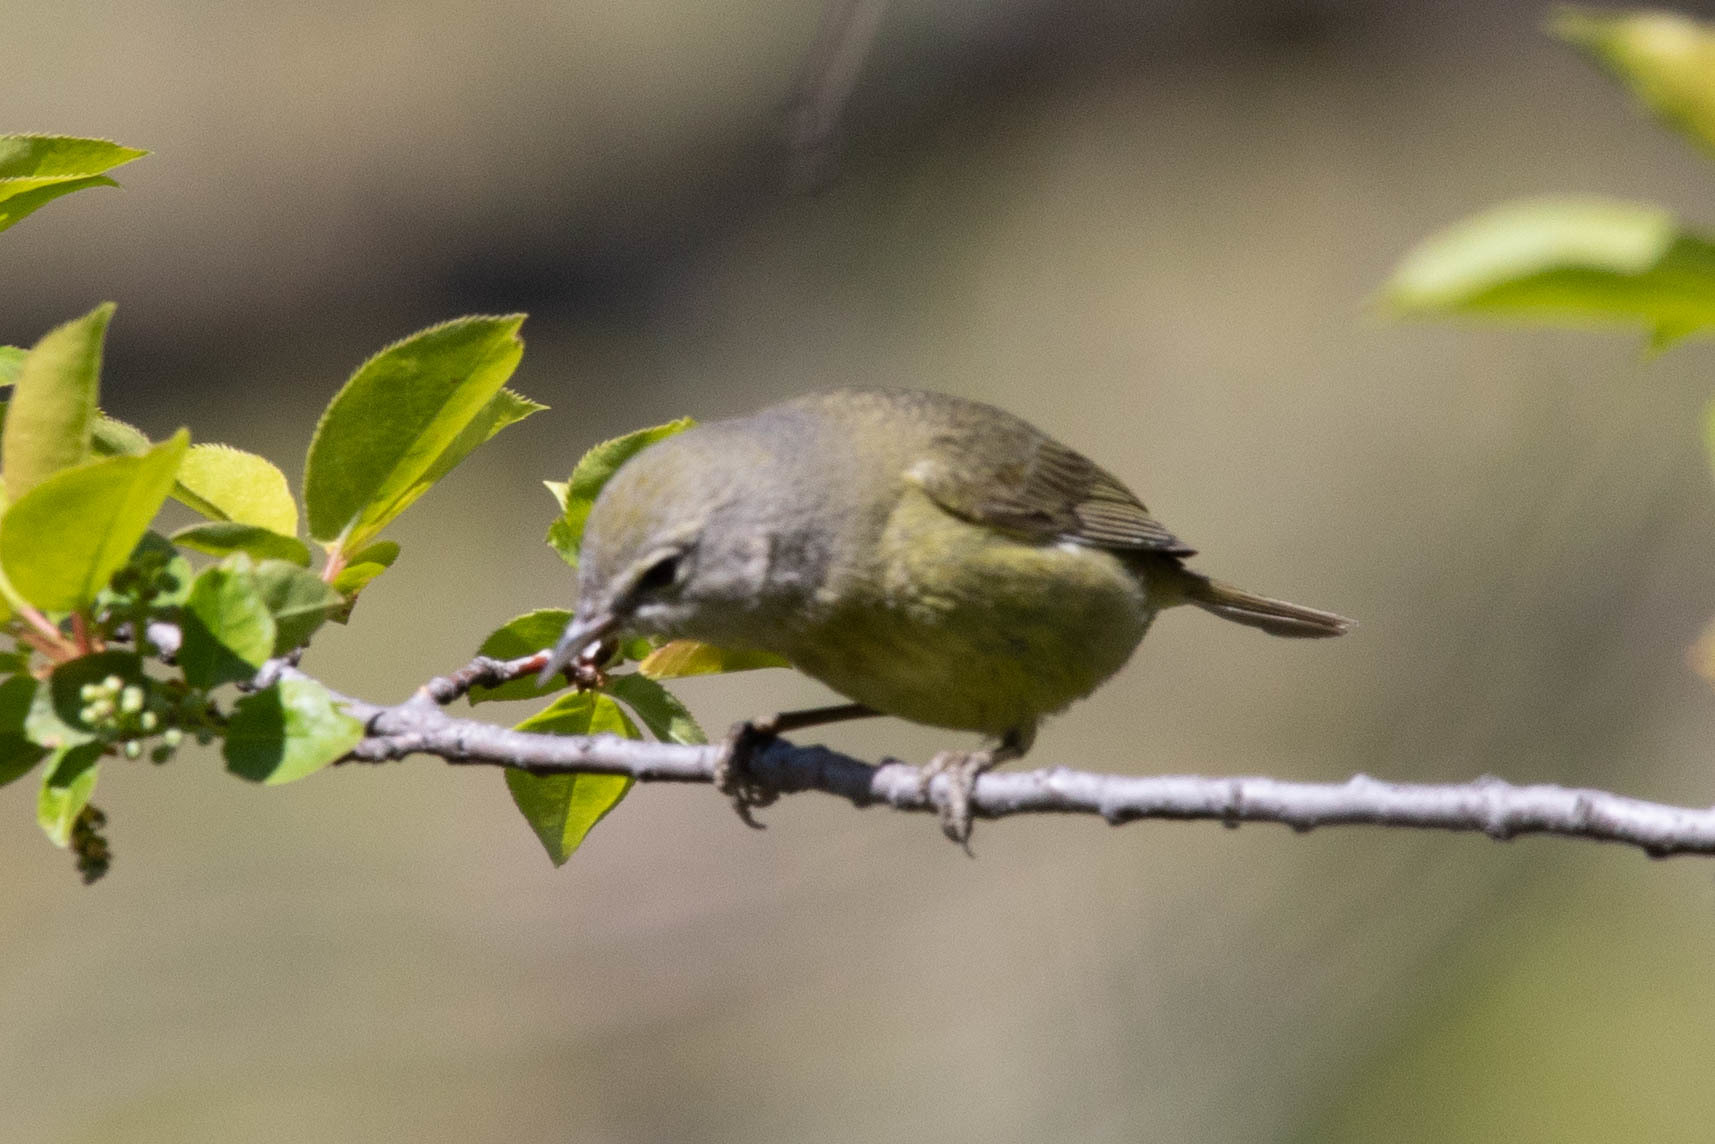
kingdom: Animalia
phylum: Chordata
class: Aves
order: Passeriformes
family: Parulidae
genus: Leiothlypis
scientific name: Leiothlypis celata
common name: Orange-crowned warbler
